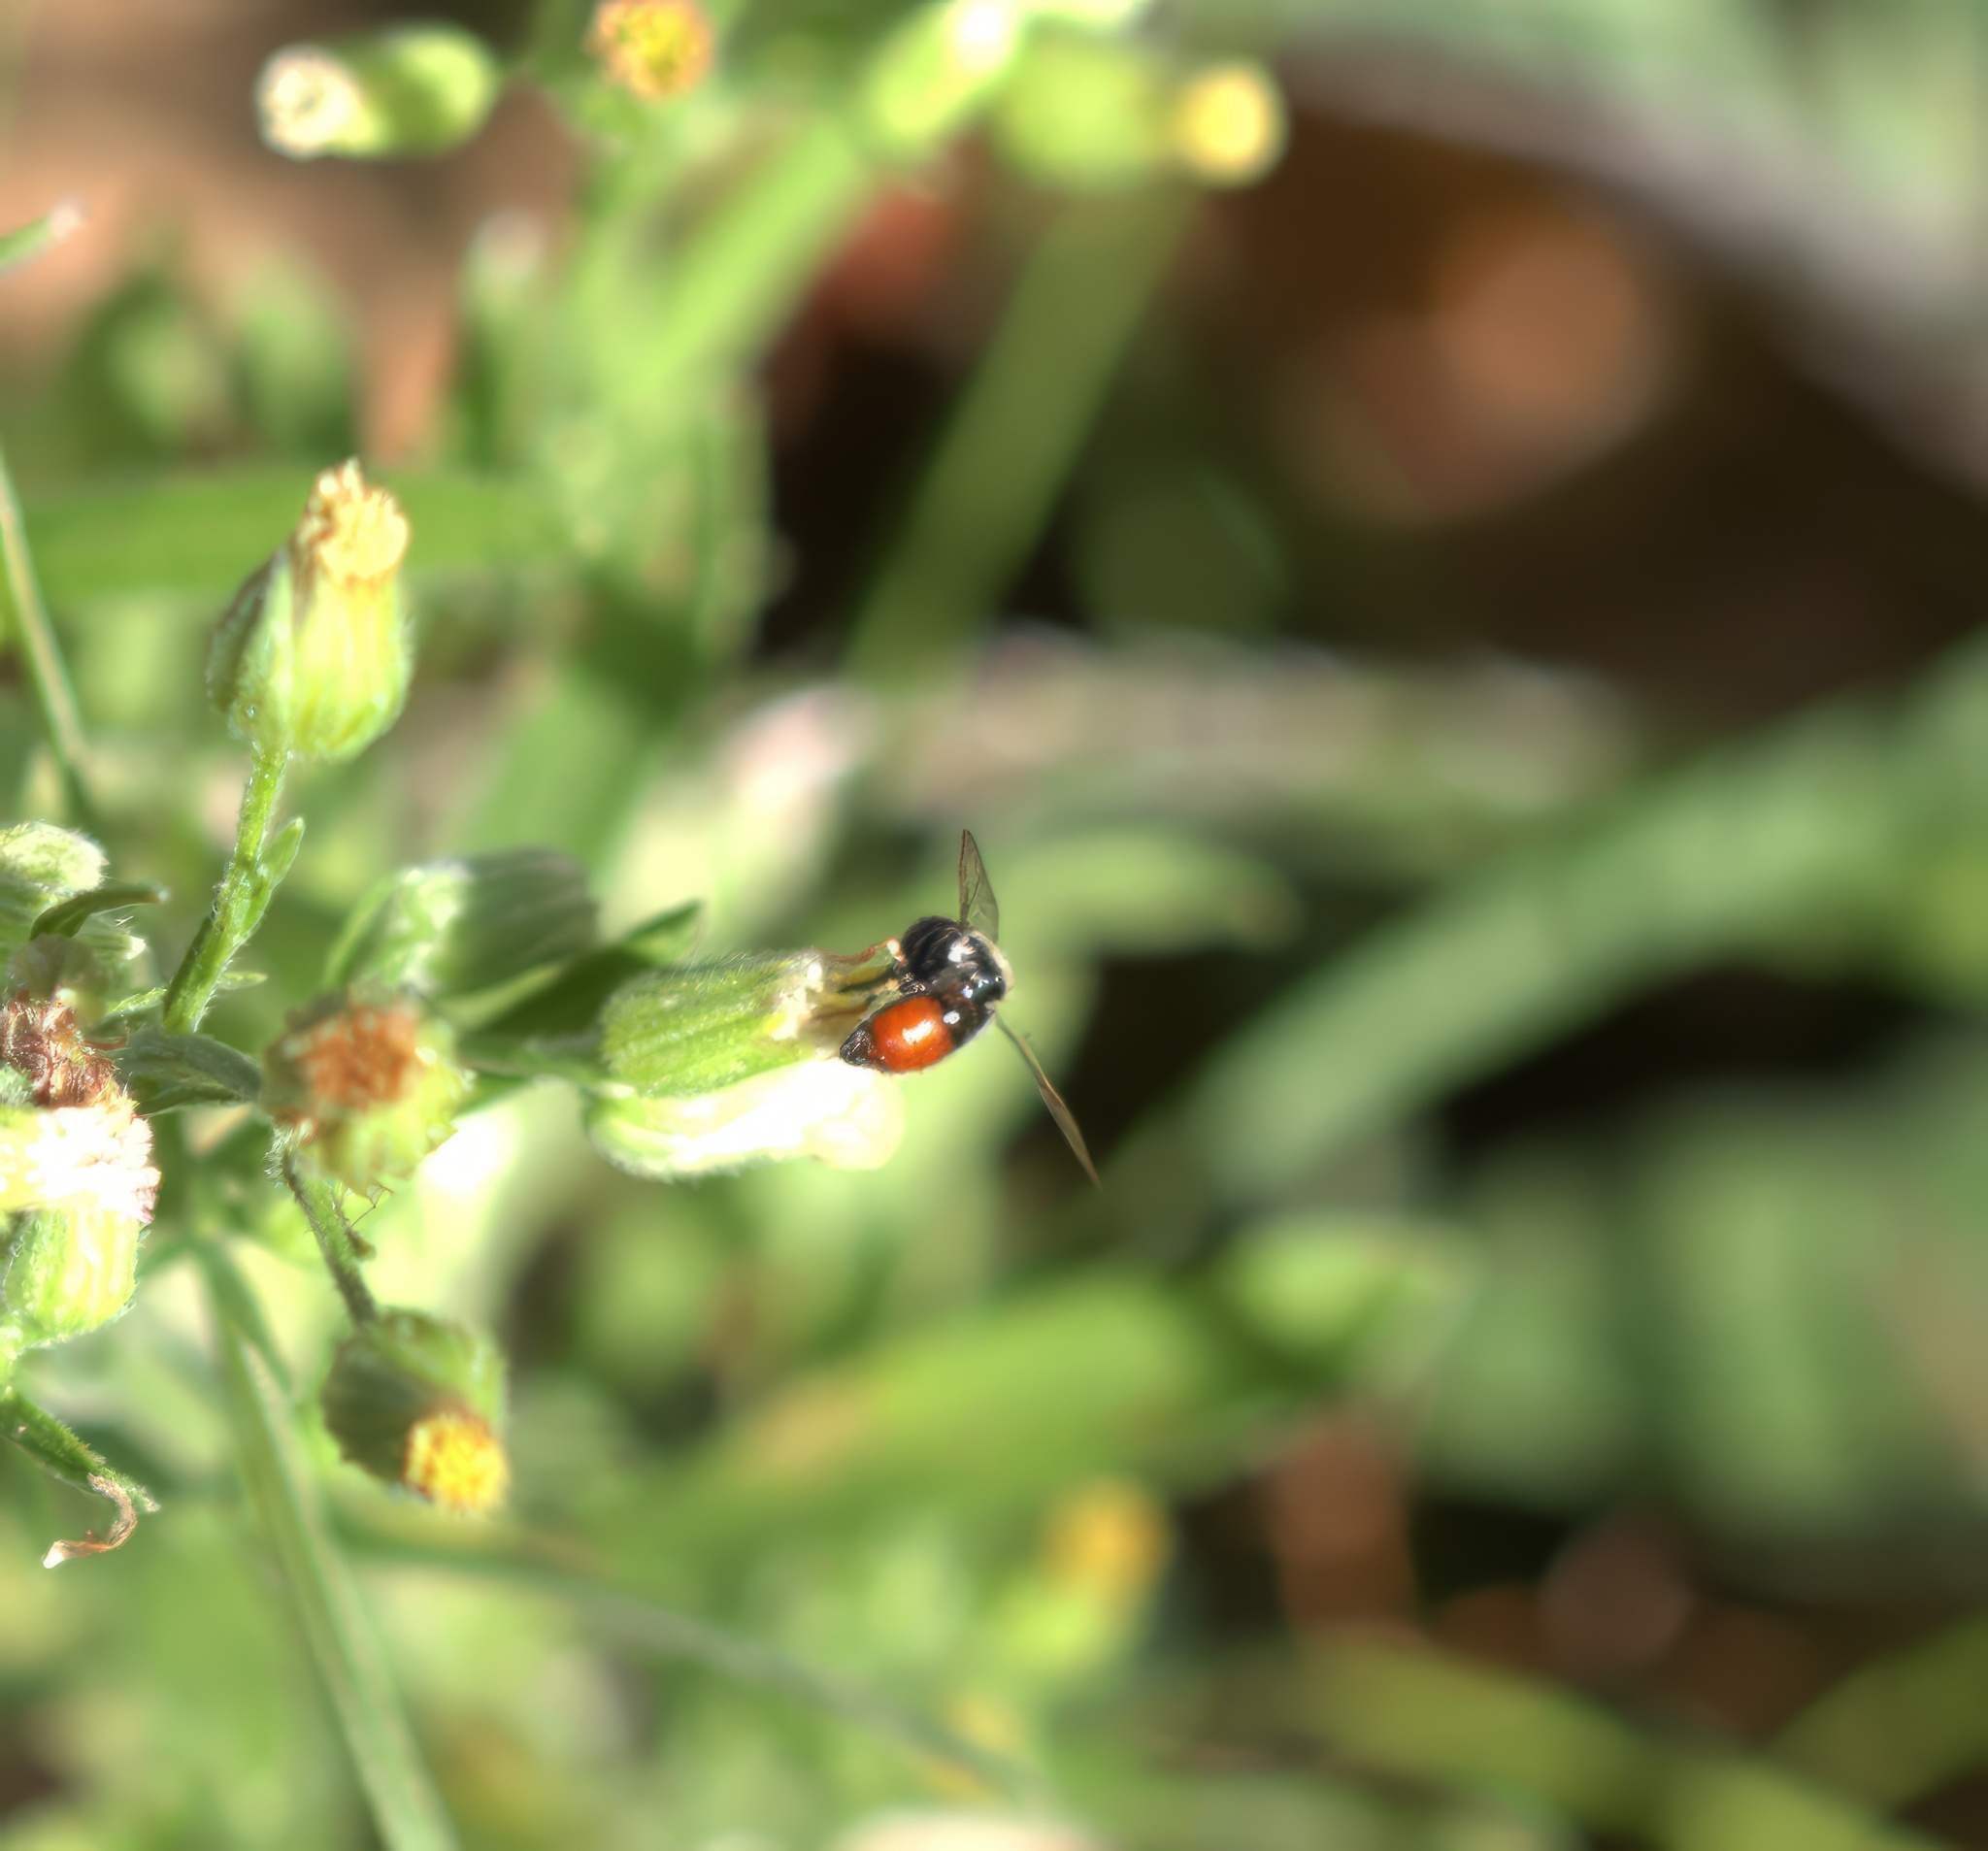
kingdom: Animalia
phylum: Arthropoda
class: Insecta
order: Diptera
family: Syrphidae
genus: Paragus
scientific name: Paragus haemorrhous
